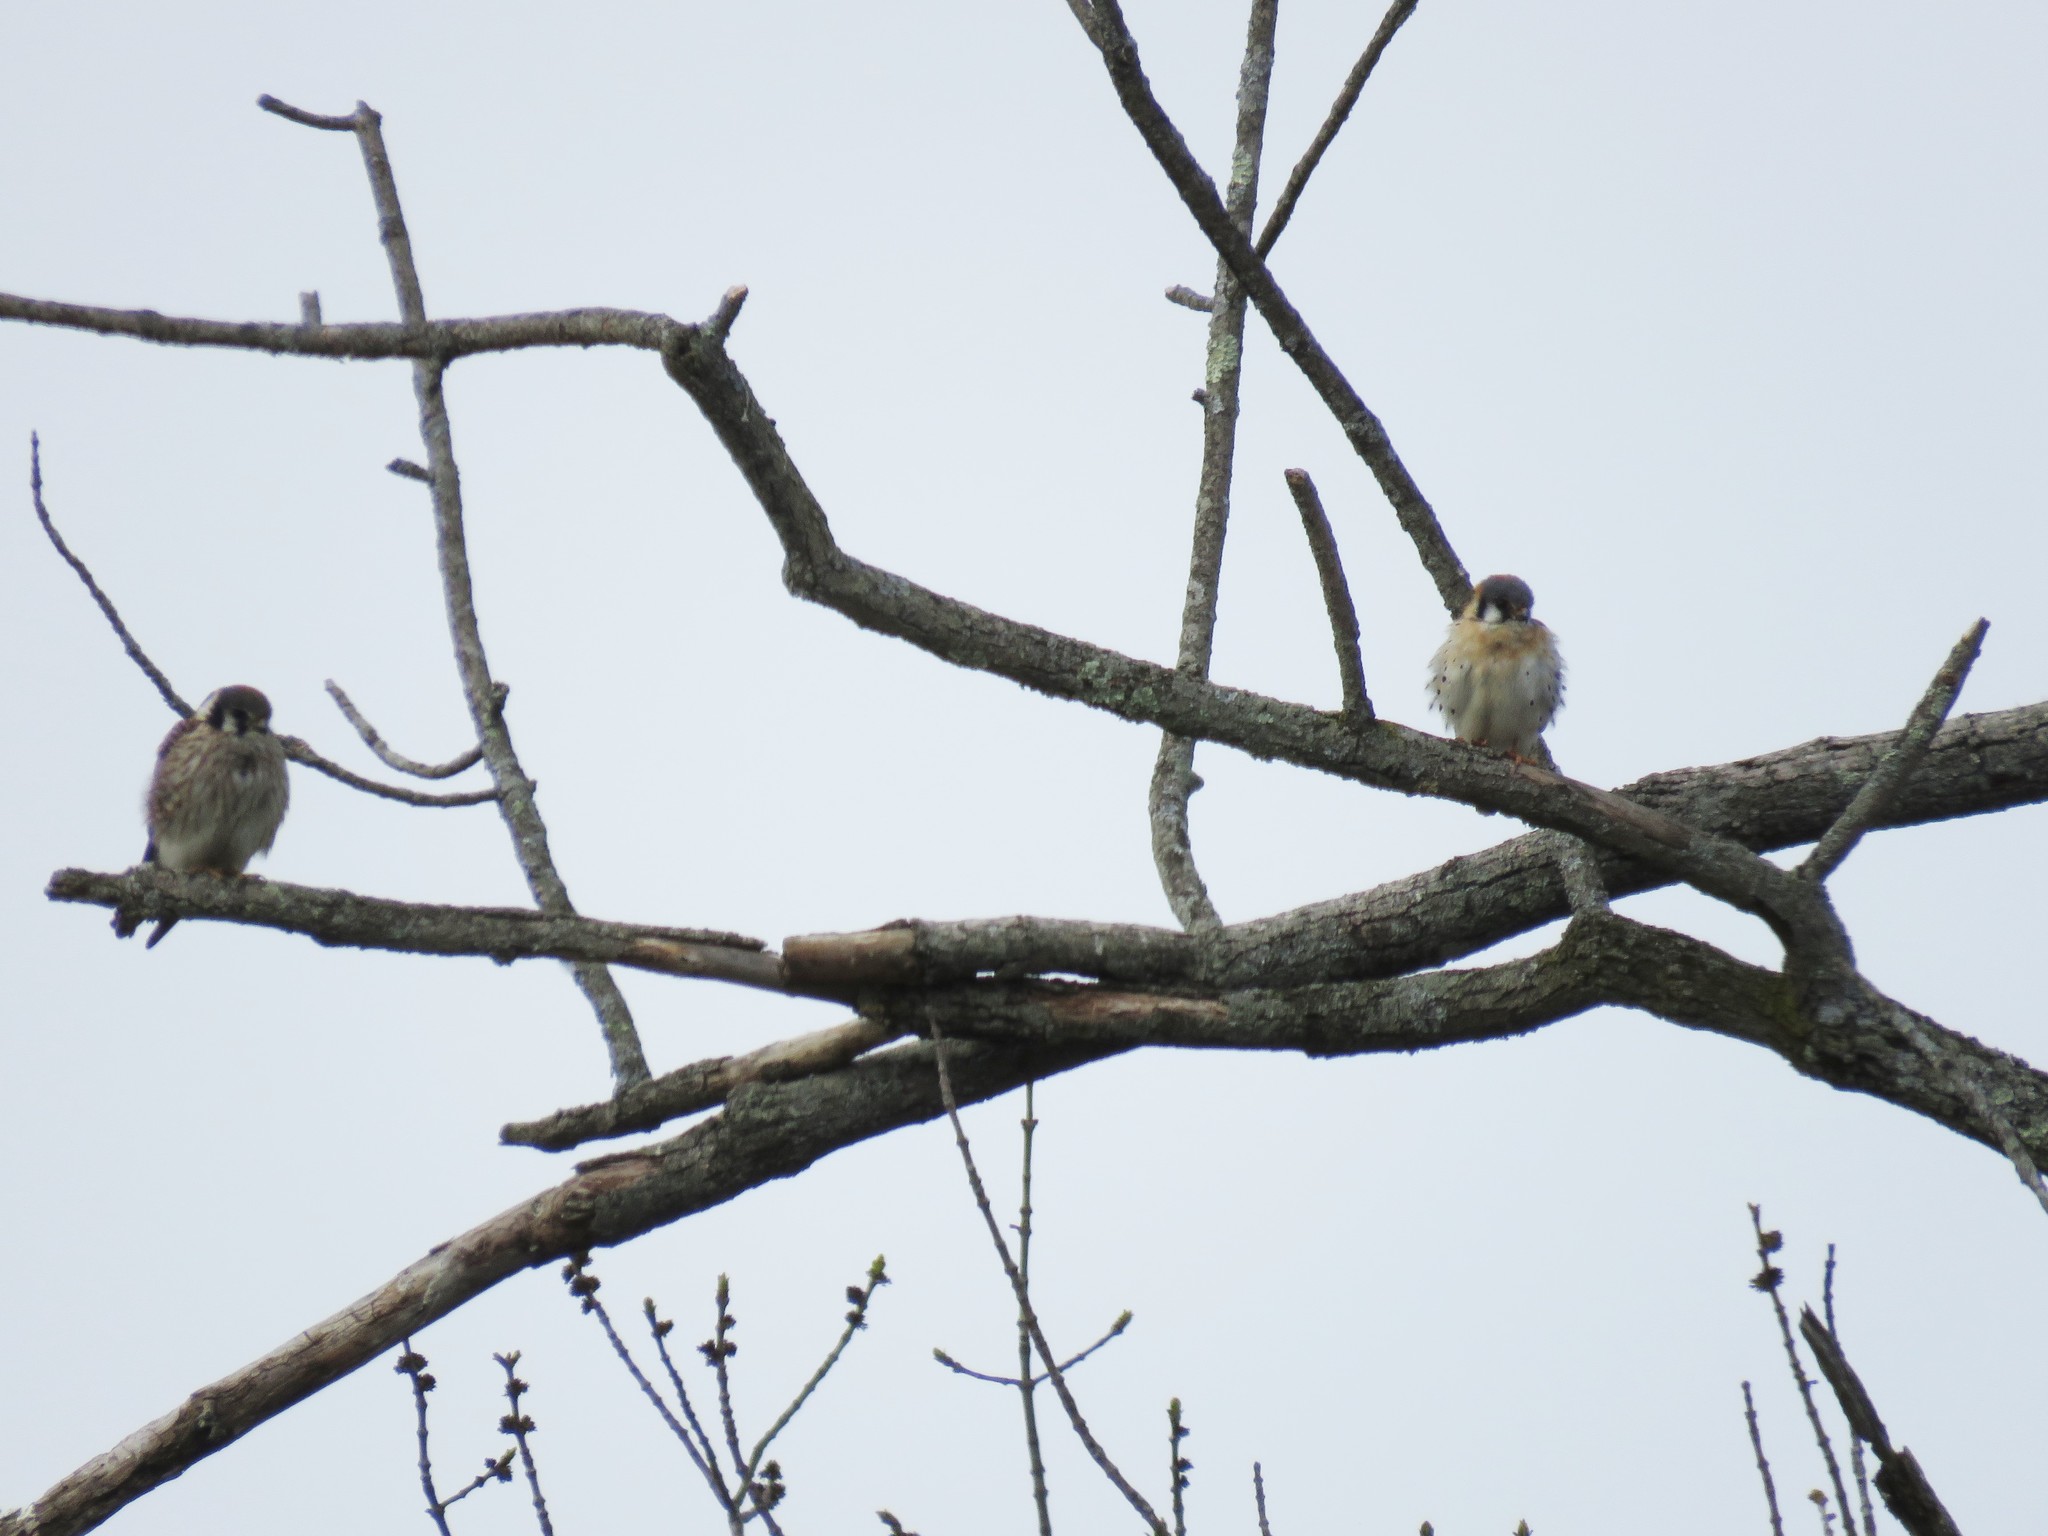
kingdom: Animalia
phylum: Chordata
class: Aves
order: Falconiformes
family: Falconidae
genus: Falco
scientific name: Falco sparverius
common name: American kestrel
